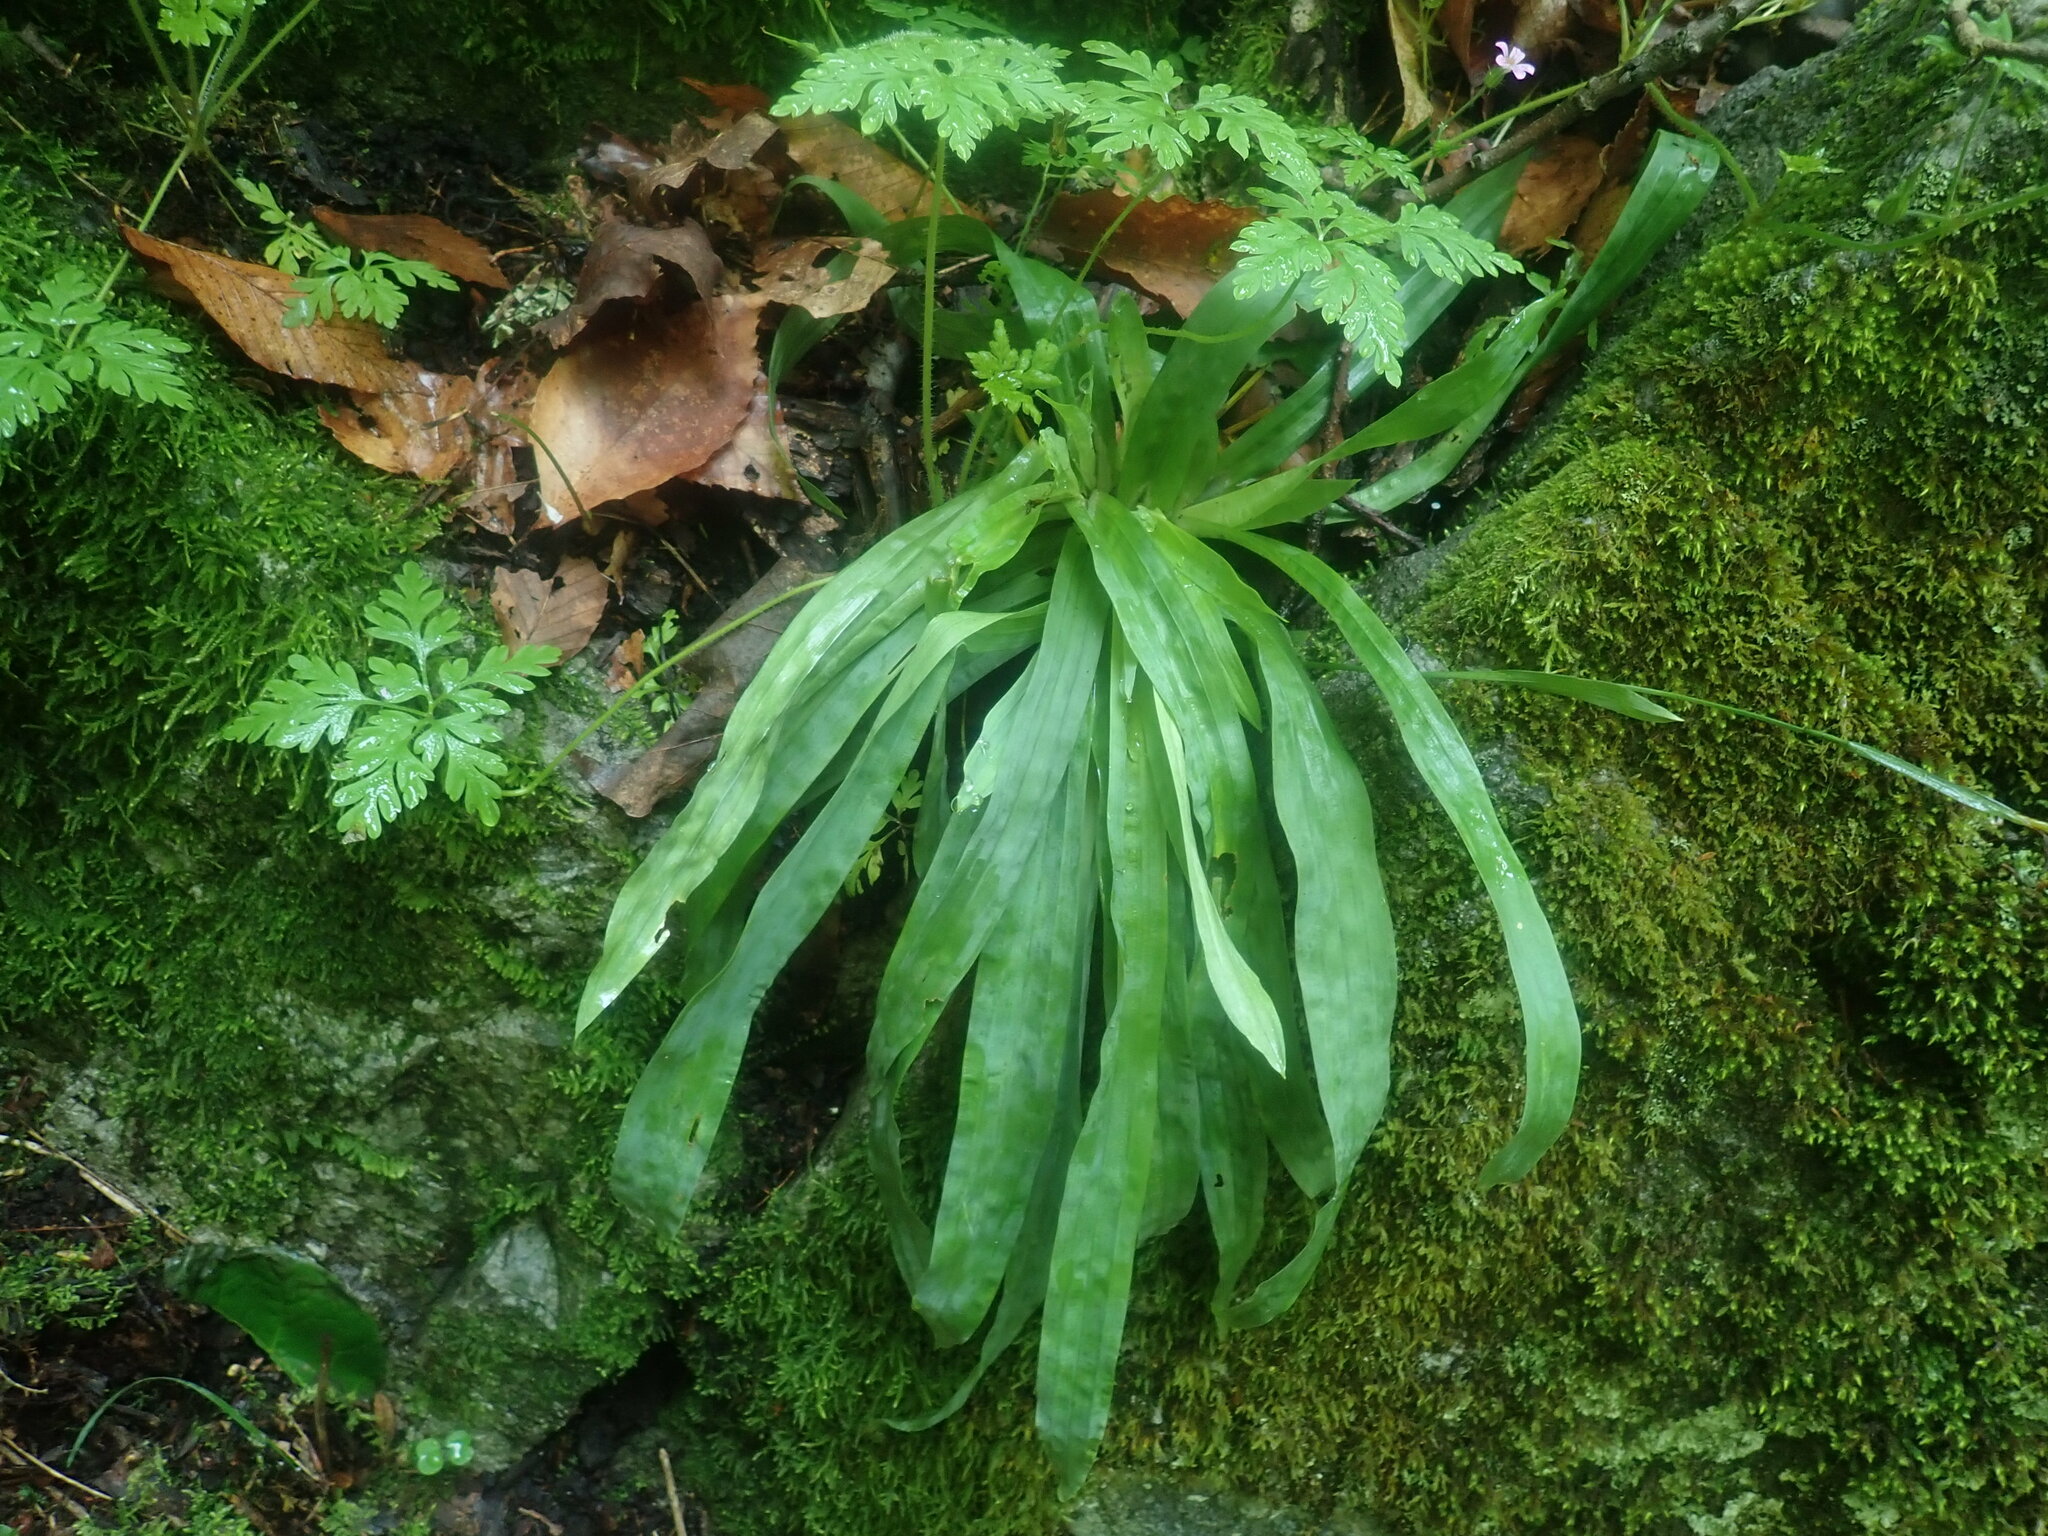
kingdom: Plantae
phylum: Tracheophyta
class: Liliopsida
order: Poales
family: Cyperaceae
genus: Carex
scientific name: Carex plantaginea
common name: Plantain-leaved sedge
